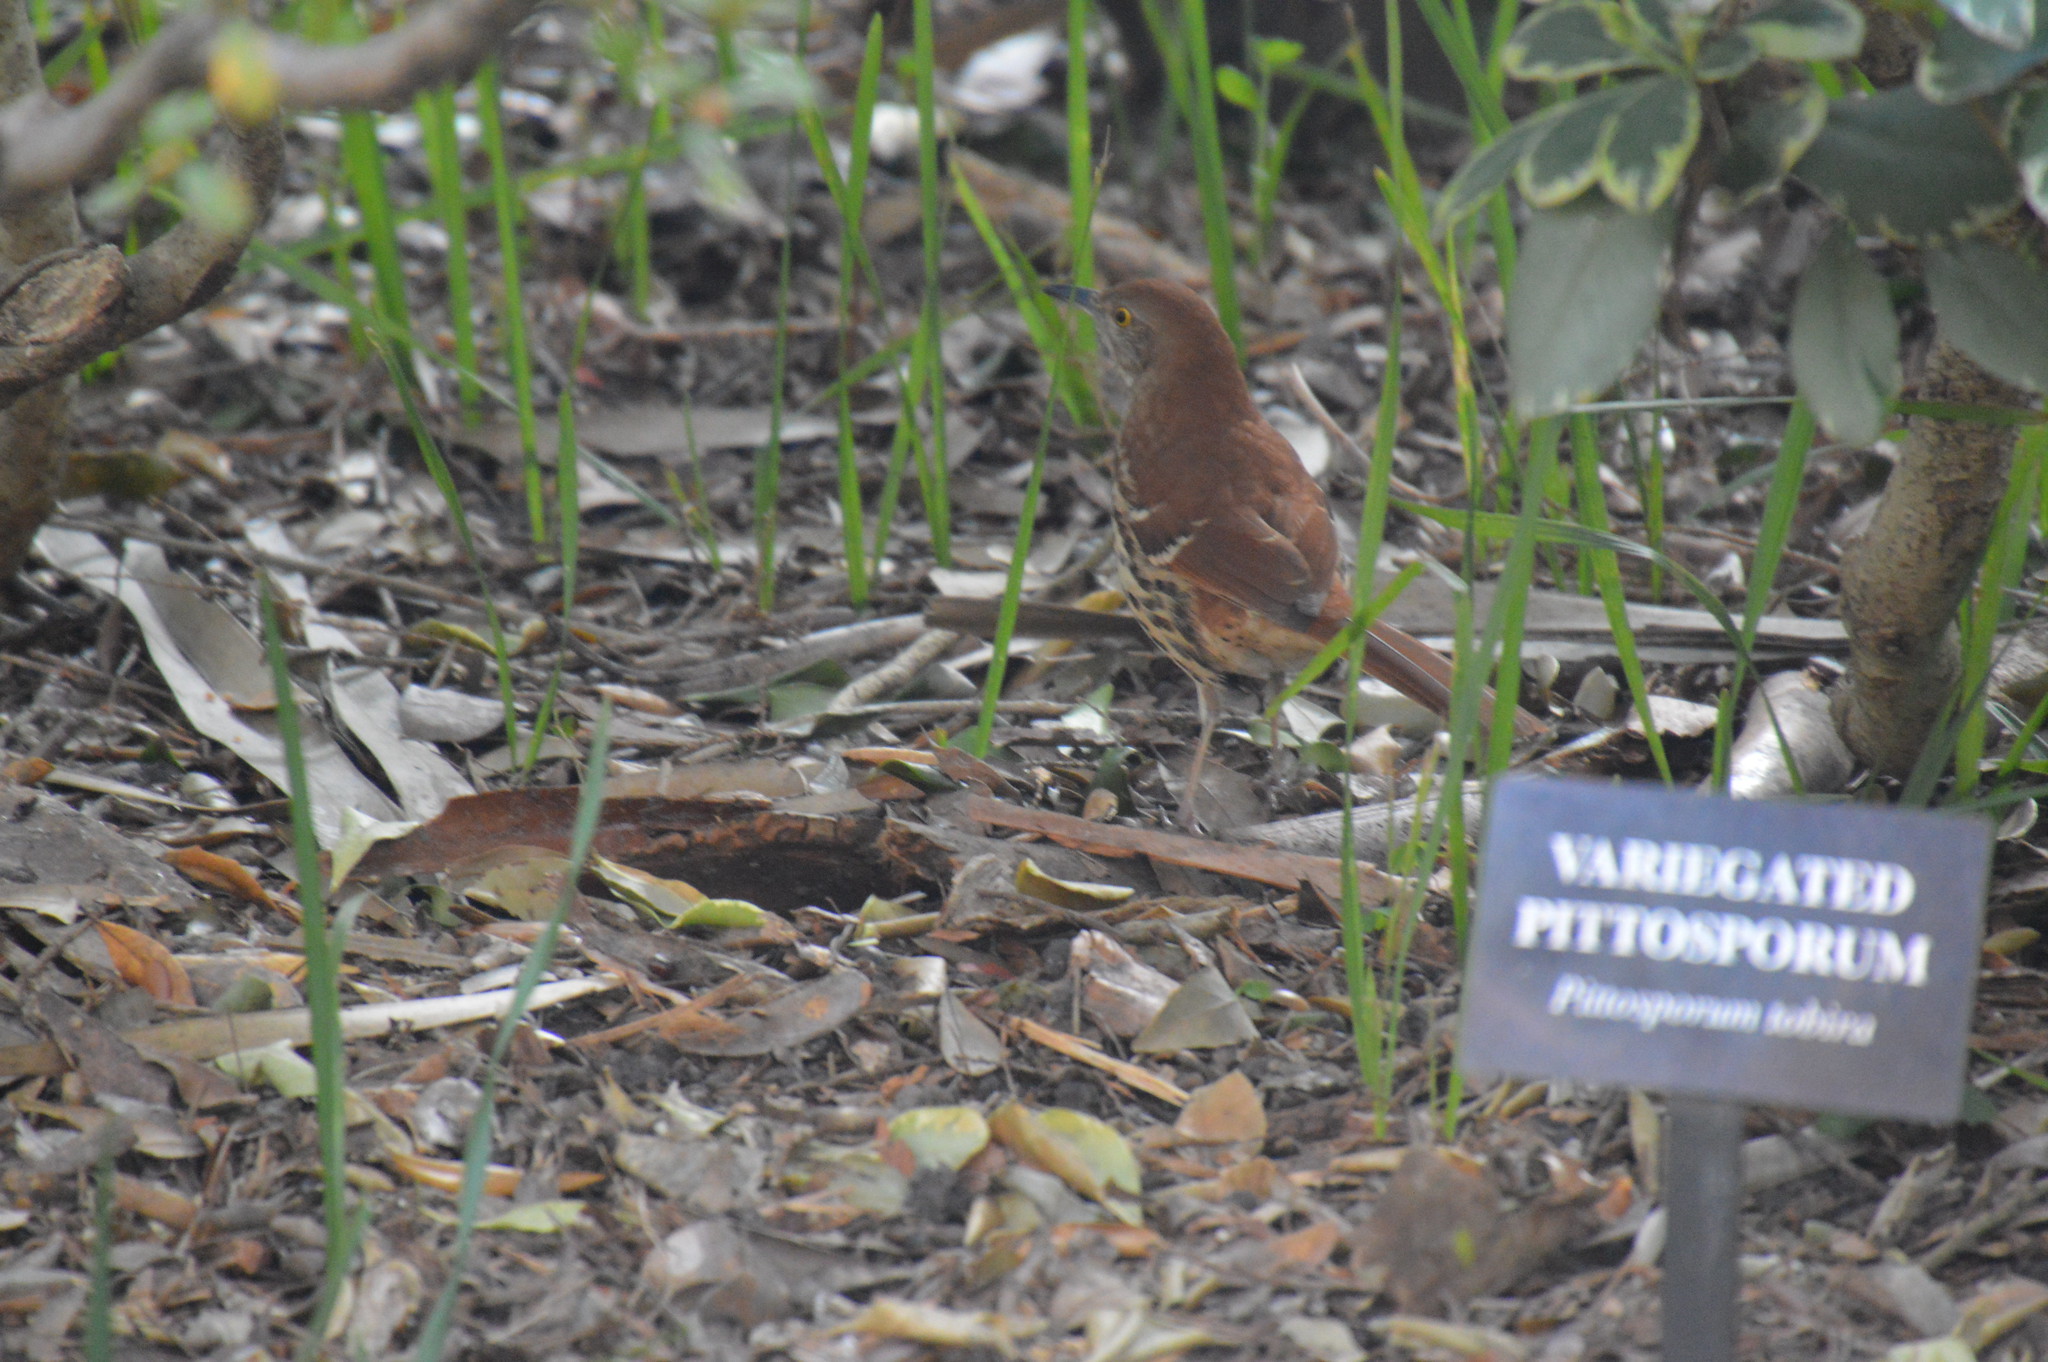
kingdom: Animalia
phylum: Chordata
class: Aves
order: Passeriformes
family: Mimidae
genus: Toxostoma
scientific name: Toxostoma rufum
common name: Brown thrasher
